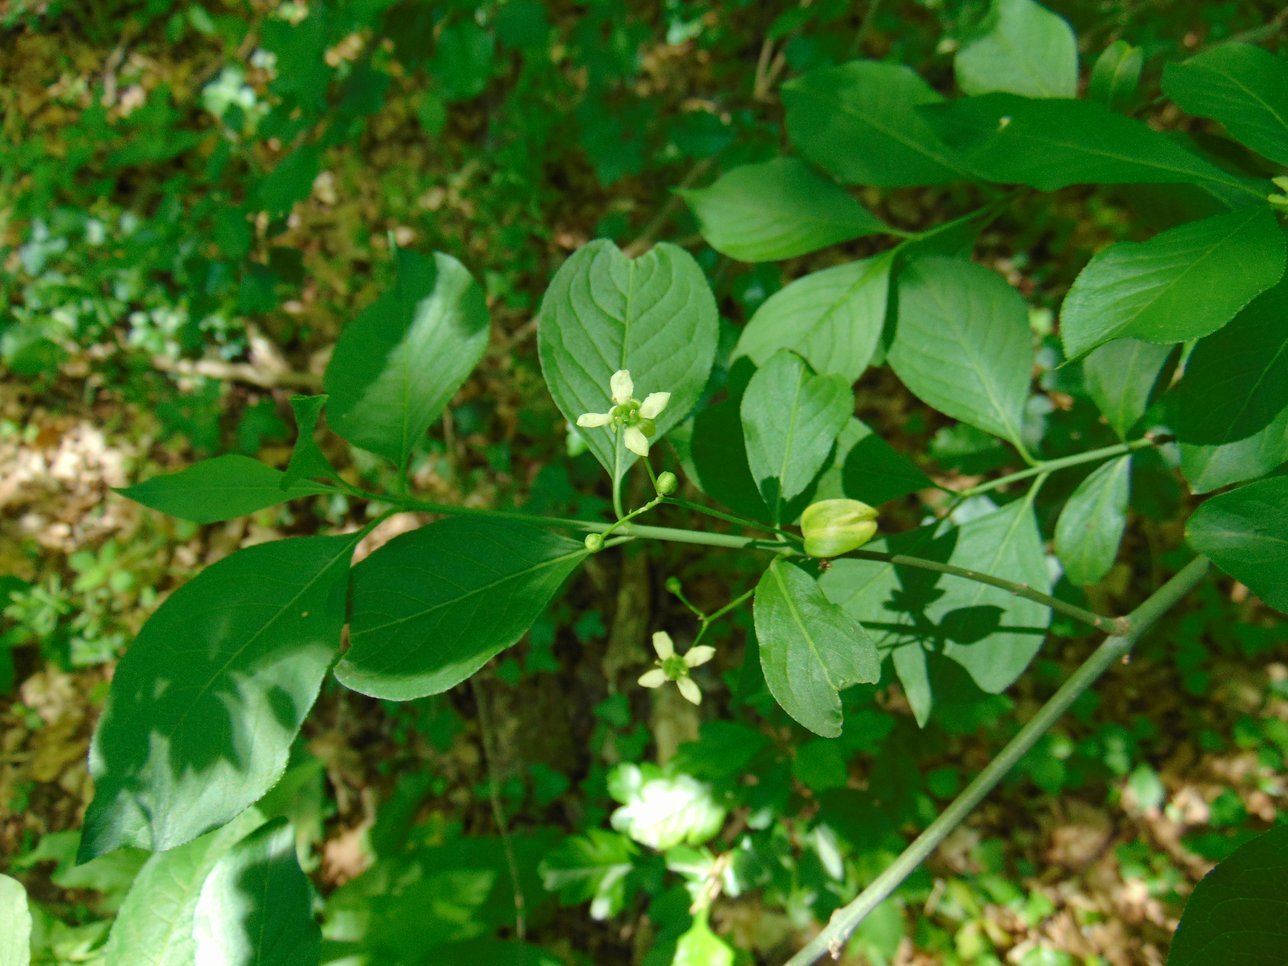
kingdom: Plantae
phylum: Tracheophyta
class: Magnoliopsida
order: Celastrales
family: Celastraceae
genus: Euonymus
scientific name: Euonymus europaeus
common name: Spindle
